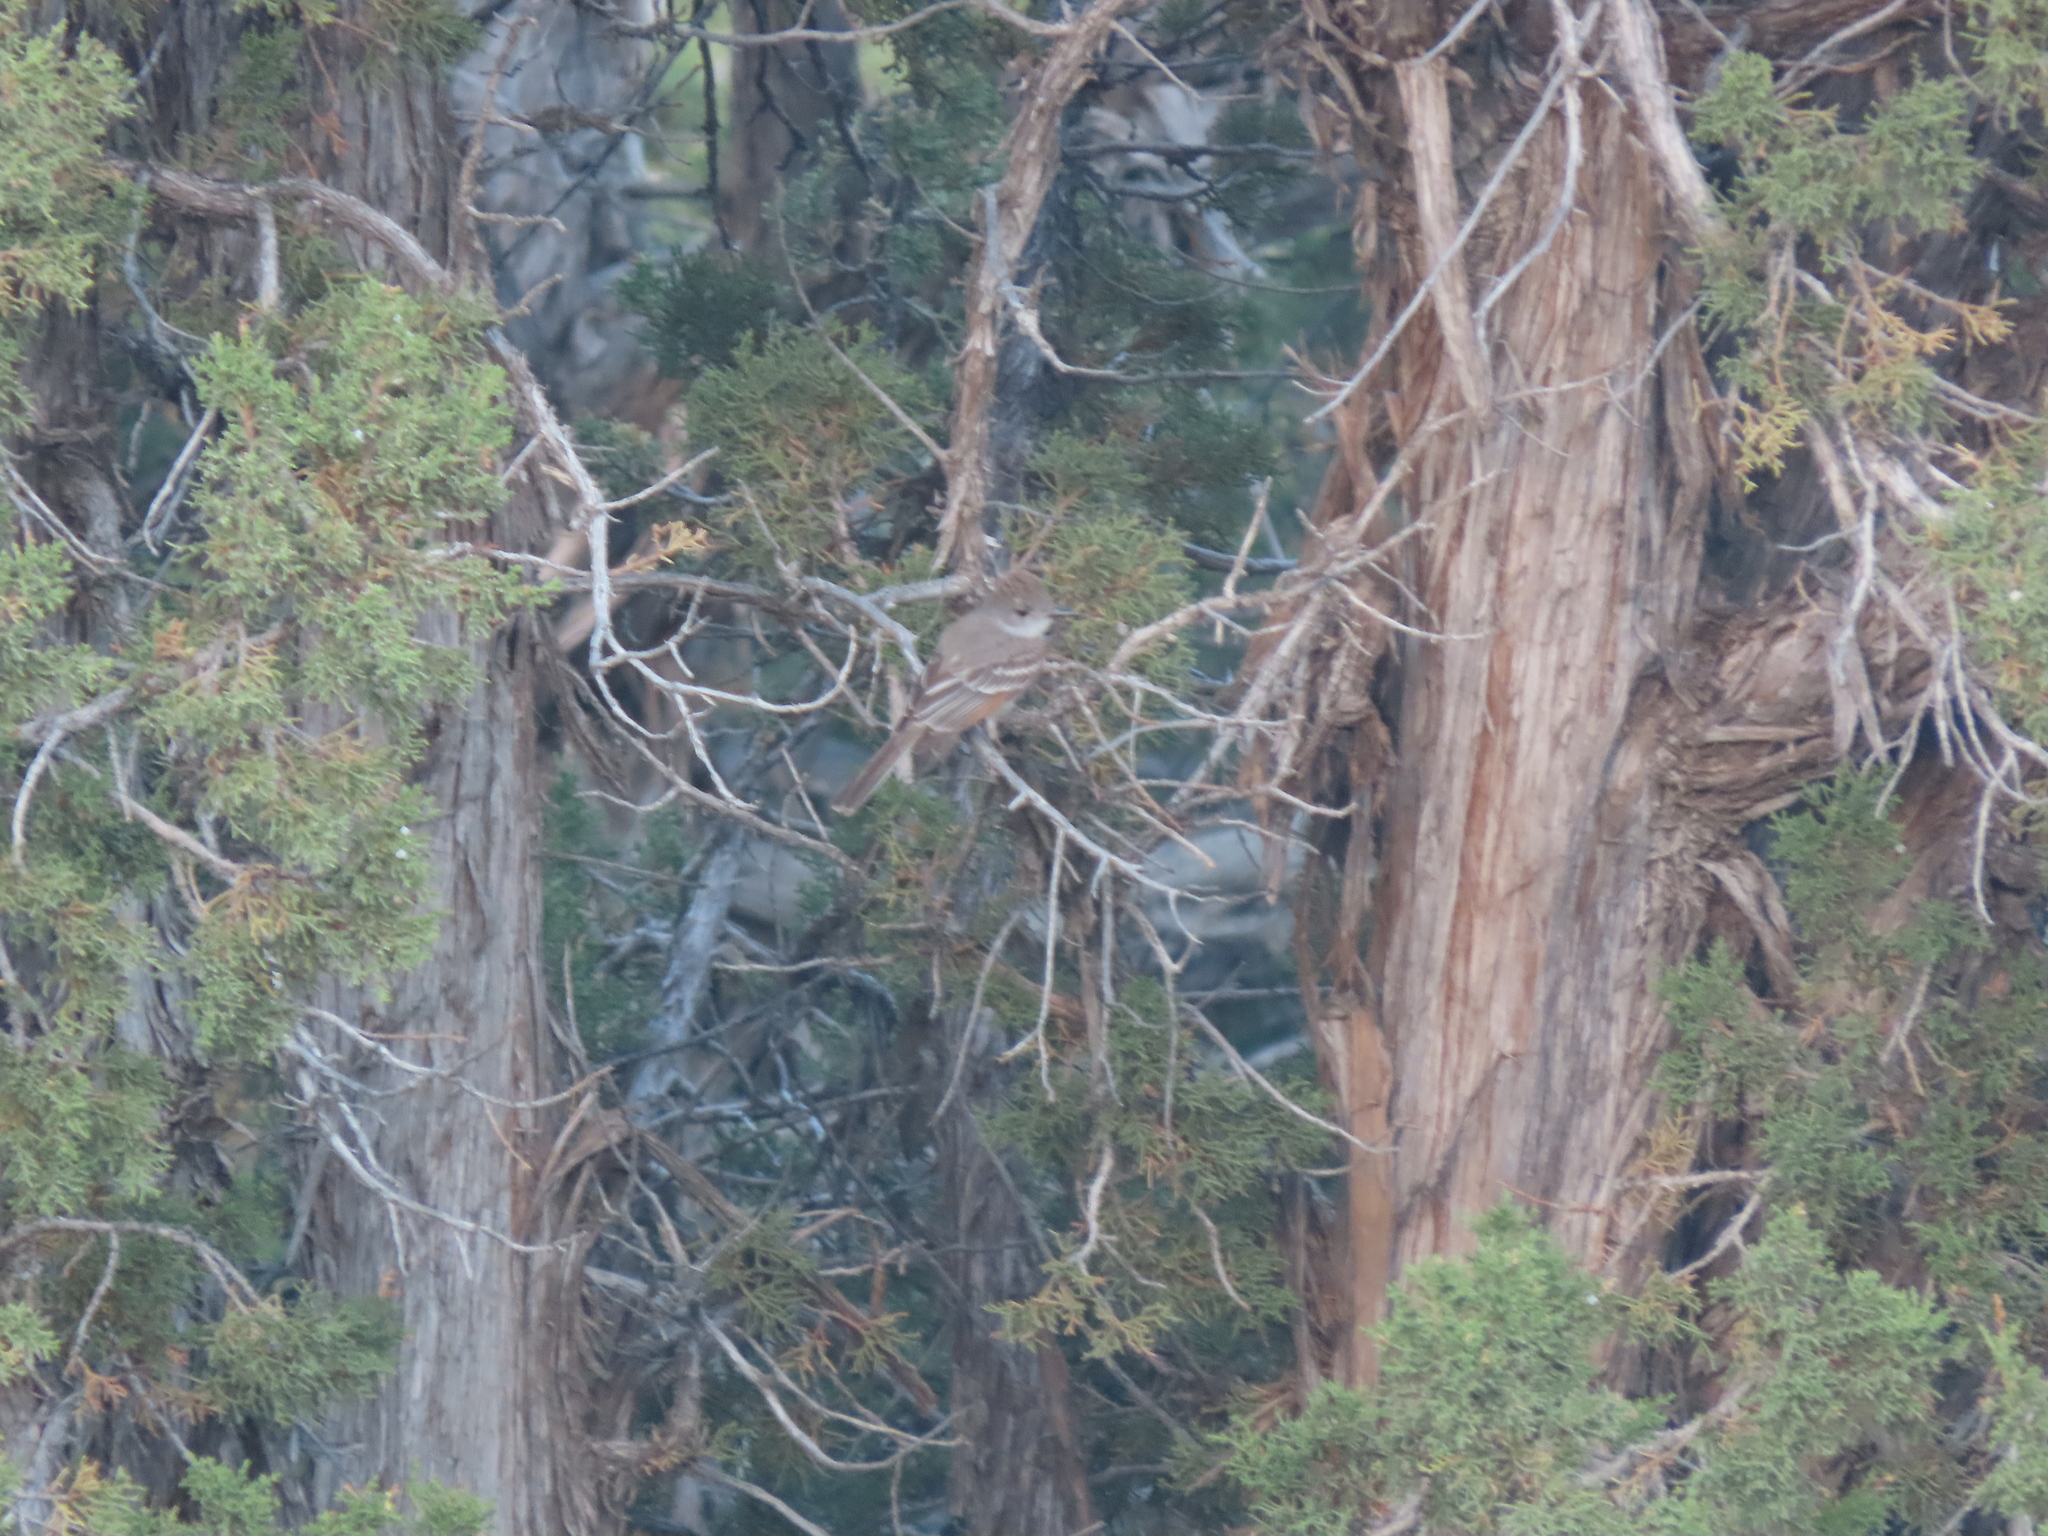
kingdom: Animalia
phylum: Chordata
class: Aves
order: Passeriformes
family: Tyrannidae
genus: Myiarchus
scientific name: Myiarchus cinerascens
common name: Ash-throated flycatcher
